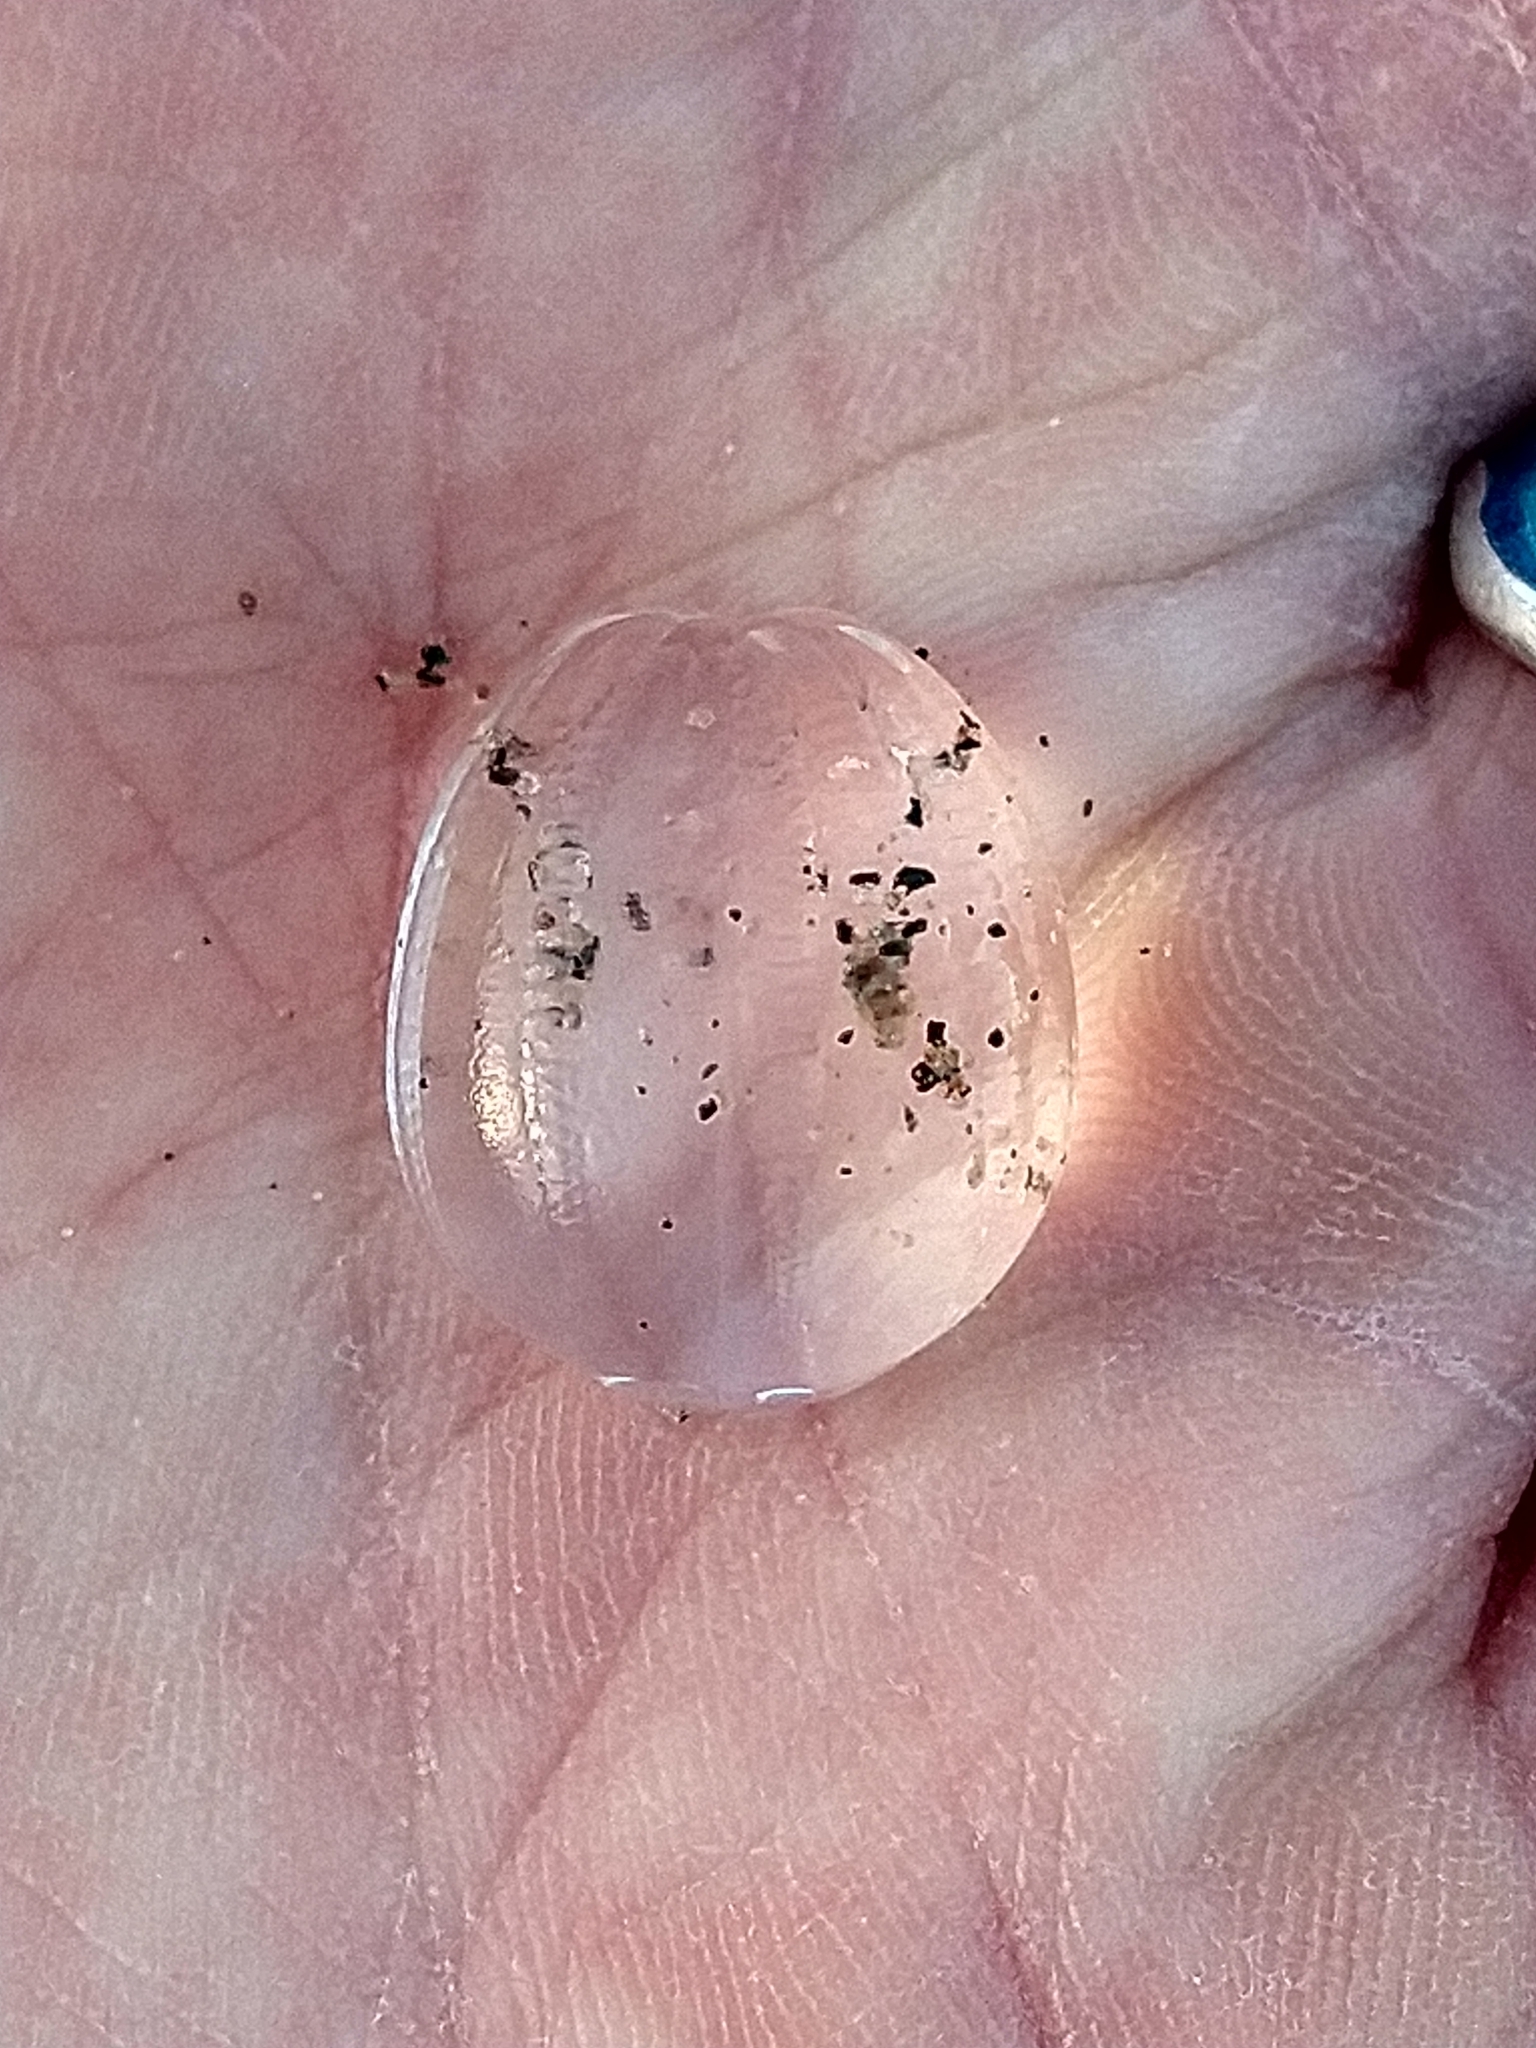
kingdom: Animalia
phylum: Ctenophora
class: Tentaculata
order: Cydippida
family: Pleurobrachiidae
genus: Pleurobrachia
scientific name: Pleurobrachia pileus
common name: Sea gooseberry
